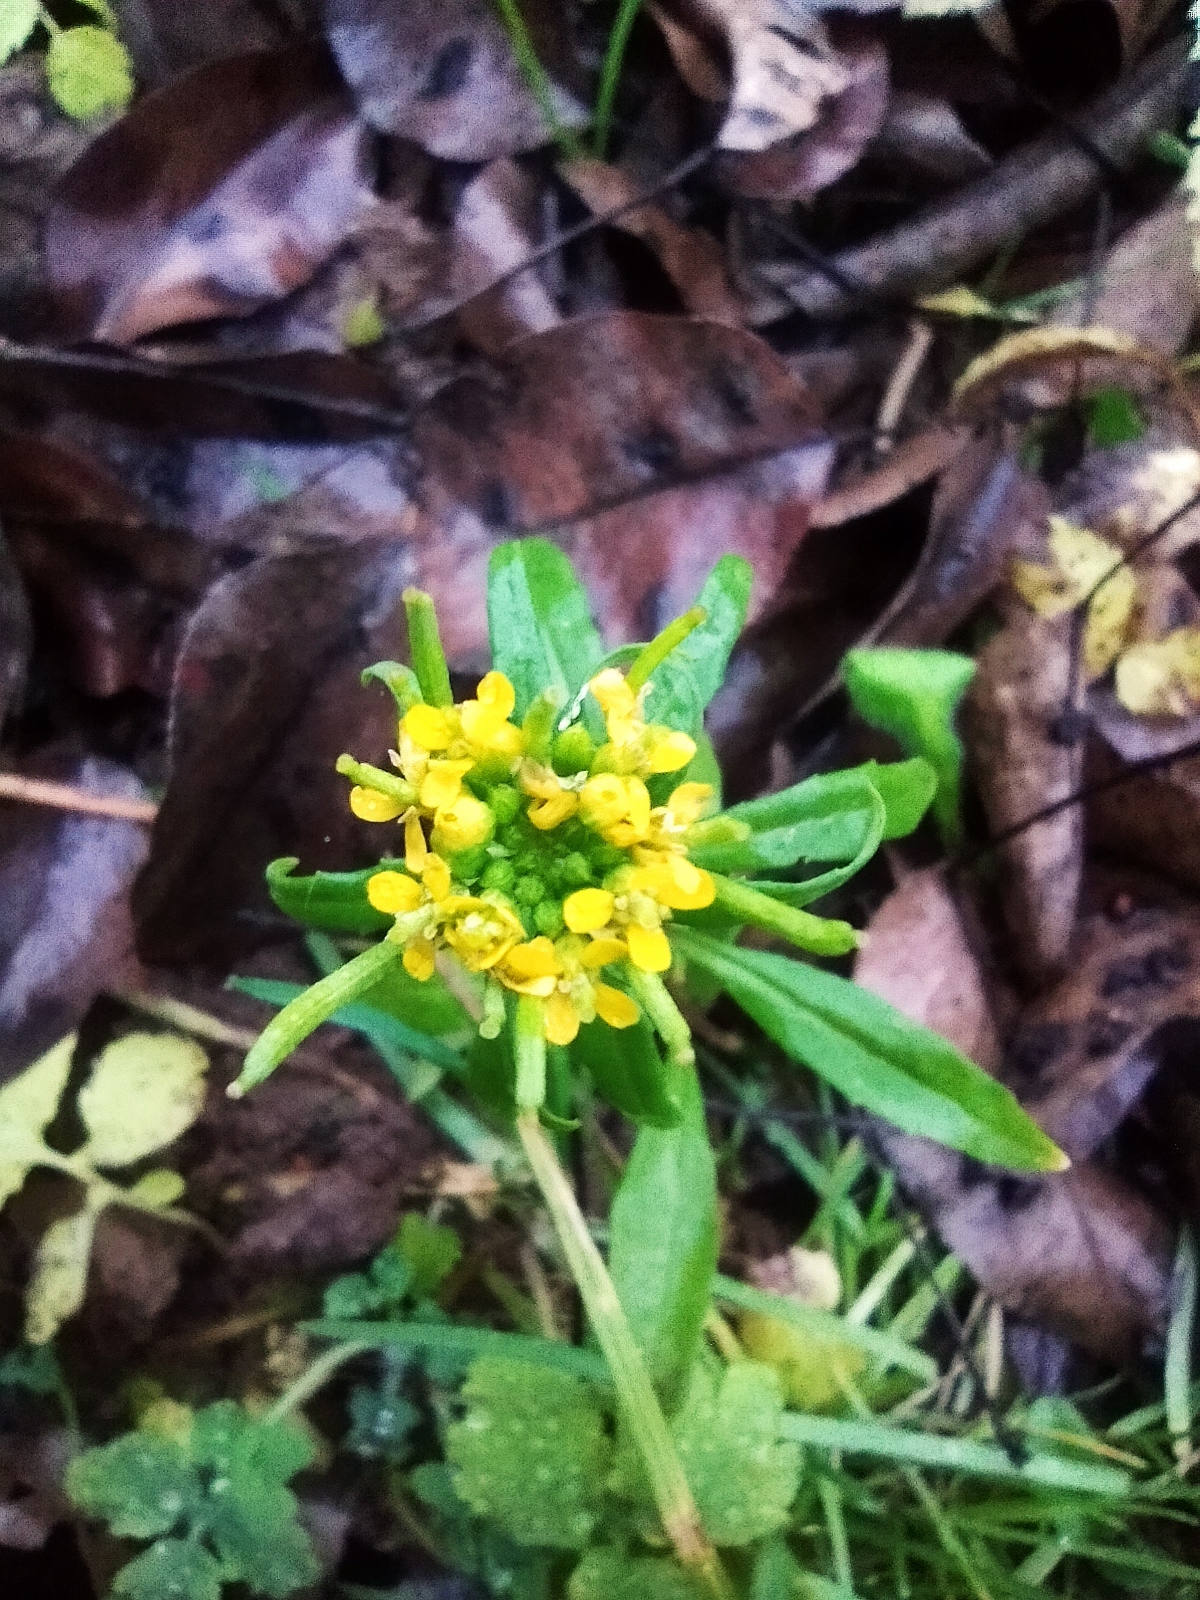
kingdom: Plantae
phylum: Tracheophyta
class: Magnoliopsida
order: Brassicales
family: Brassicaceae
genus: Erysimum
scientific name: Erysimum cheiranthoides
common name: Treacle mustard
